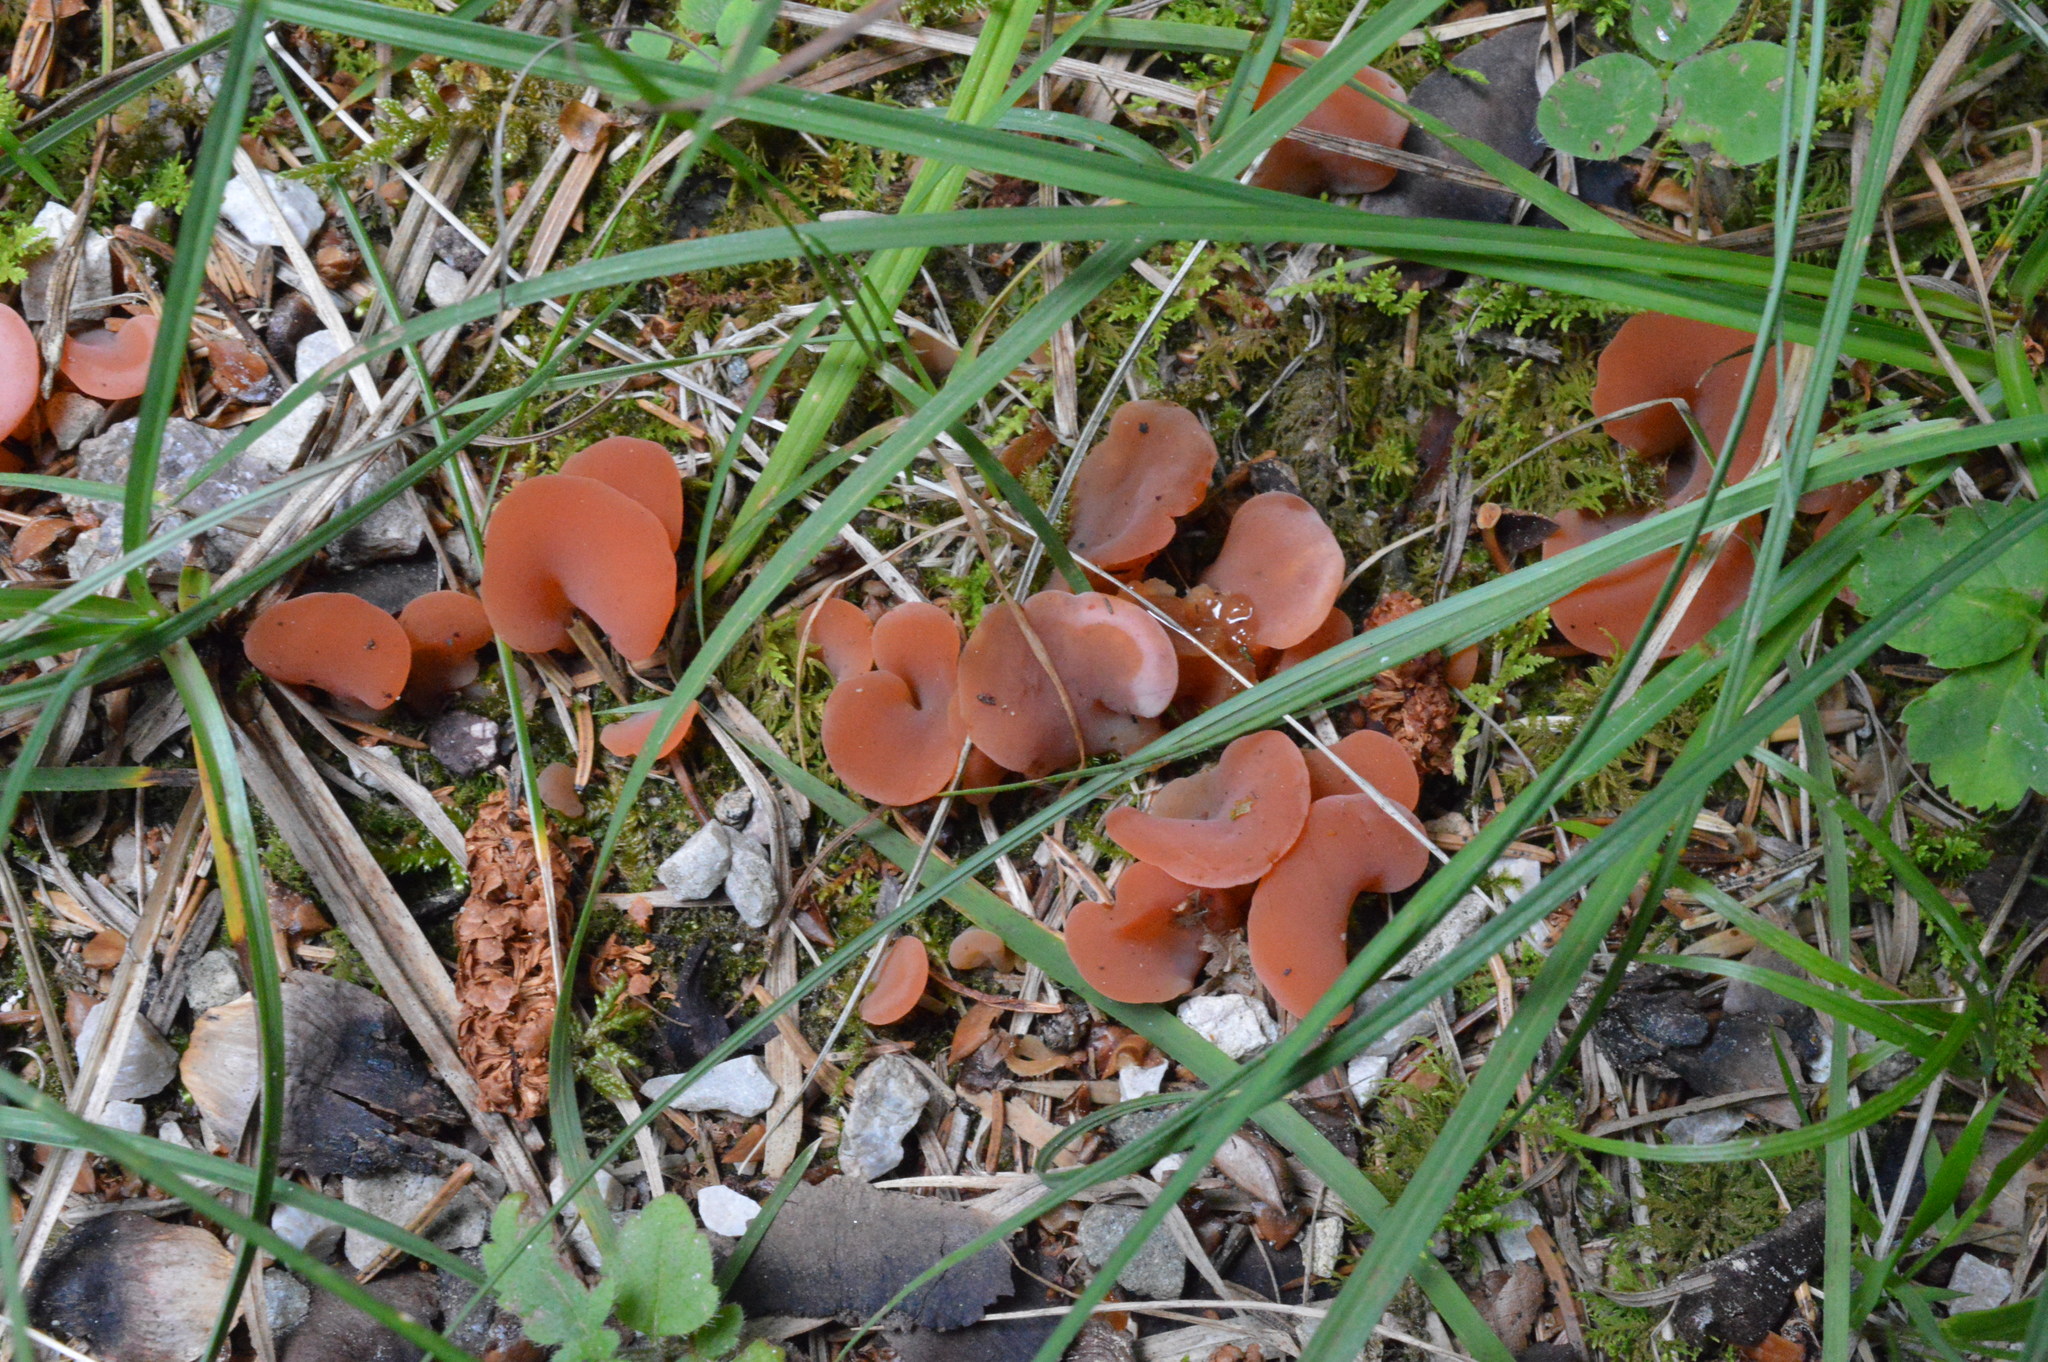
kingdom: Fungi
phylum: Basidiomycota
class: Agaricomycetes
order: Auriculariales
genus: Guepinia
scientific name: Guepinia helvelloides
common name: Salmon salad
